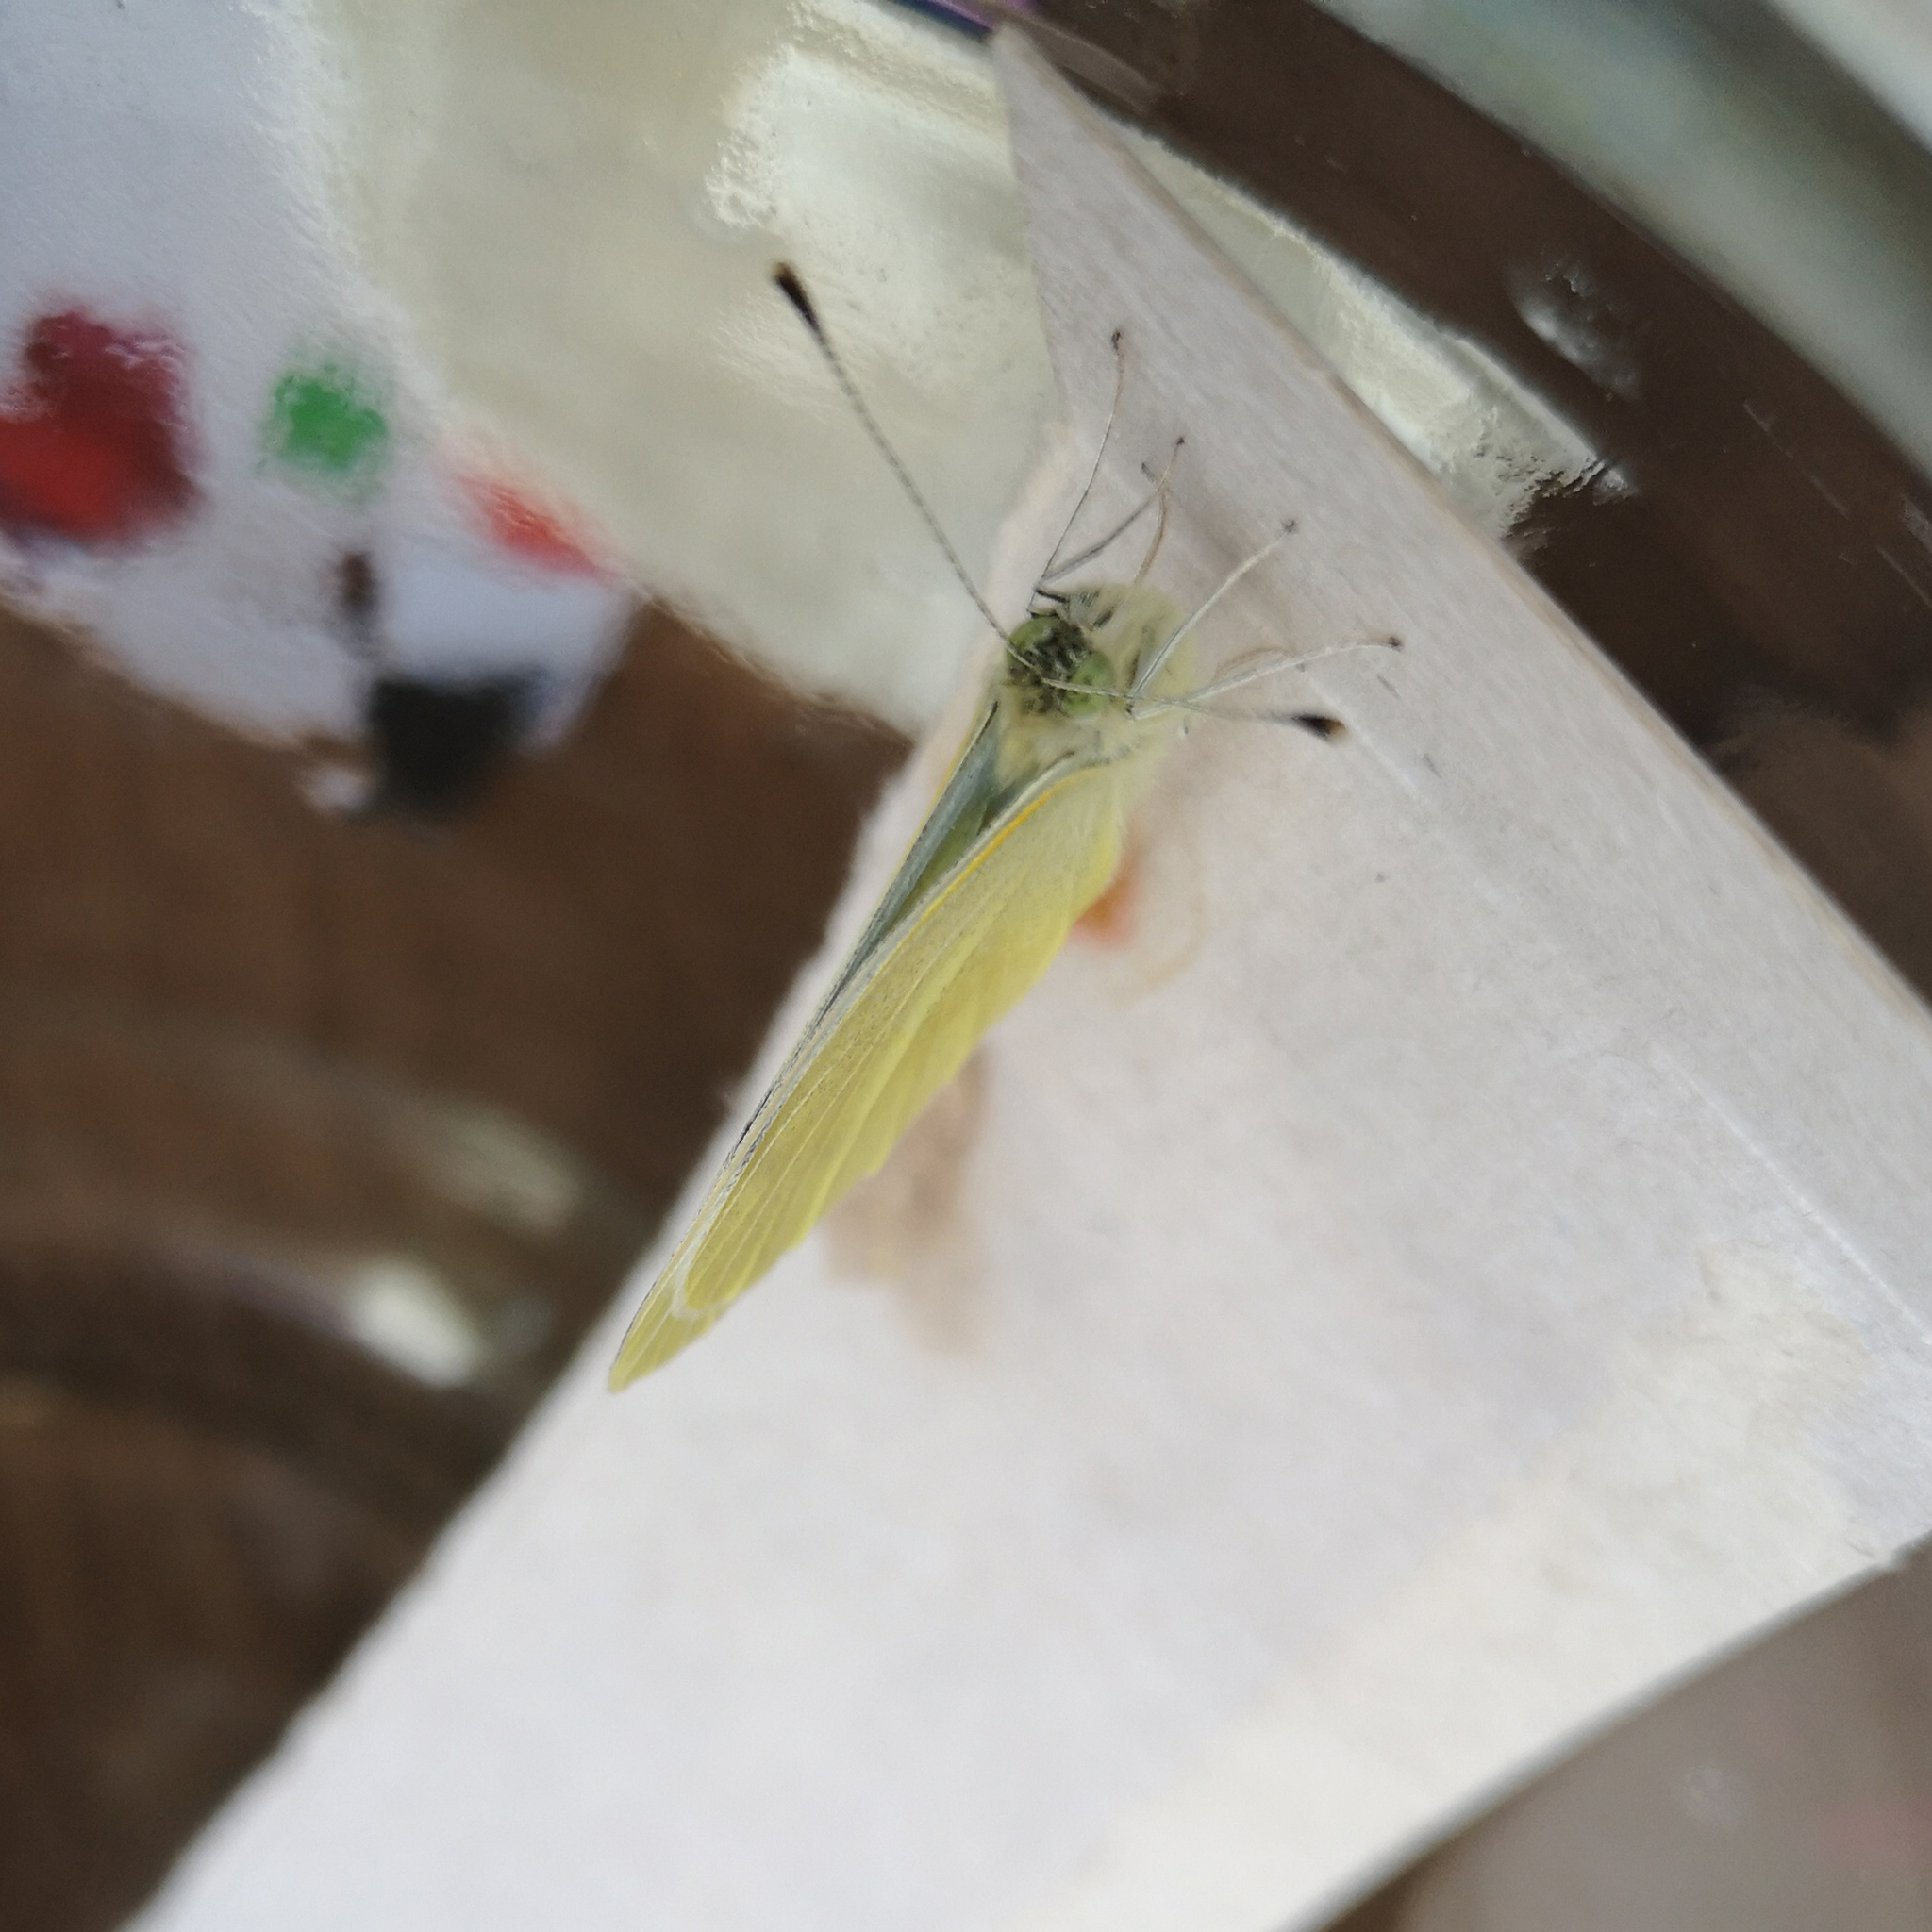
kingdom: Animalia
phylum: Arthropoda
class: Insecta
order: Lepidoptera
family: Pieridae
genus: Pieris
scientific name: Pieris rapae
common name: Small white
